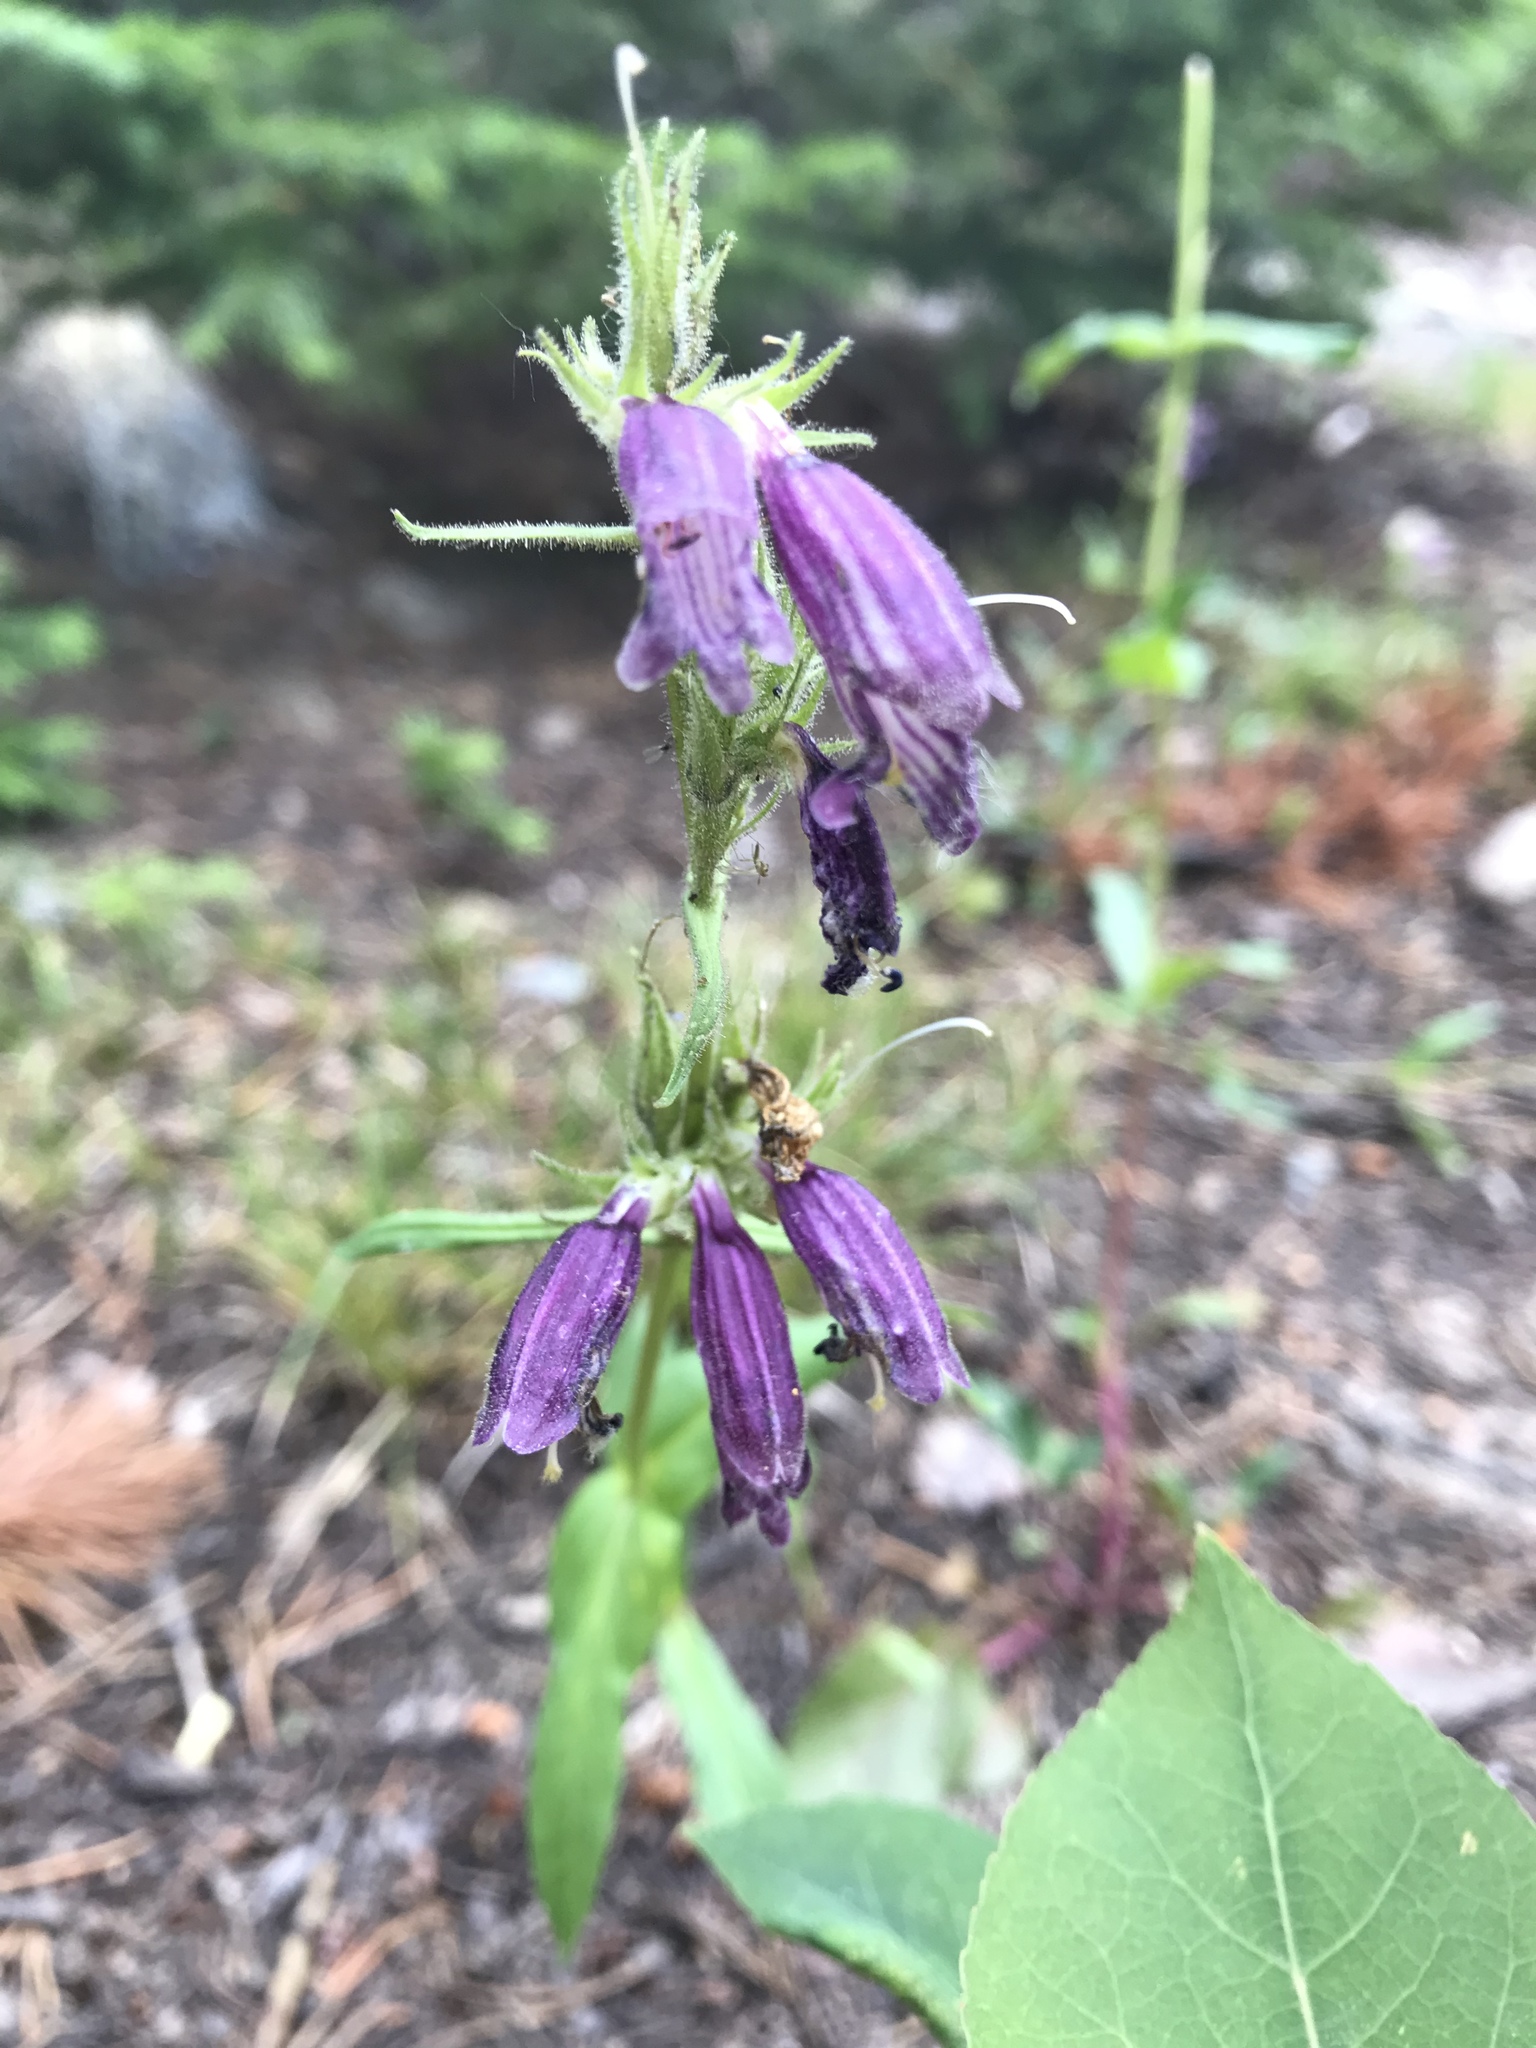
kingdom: Plantae
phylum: Tracheophyta
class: Magnoliopsida
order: Lamiales
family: Plantaginaceae
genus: Penstemon
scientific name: Penstemon whippleanus
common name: Whipple's penstemon
